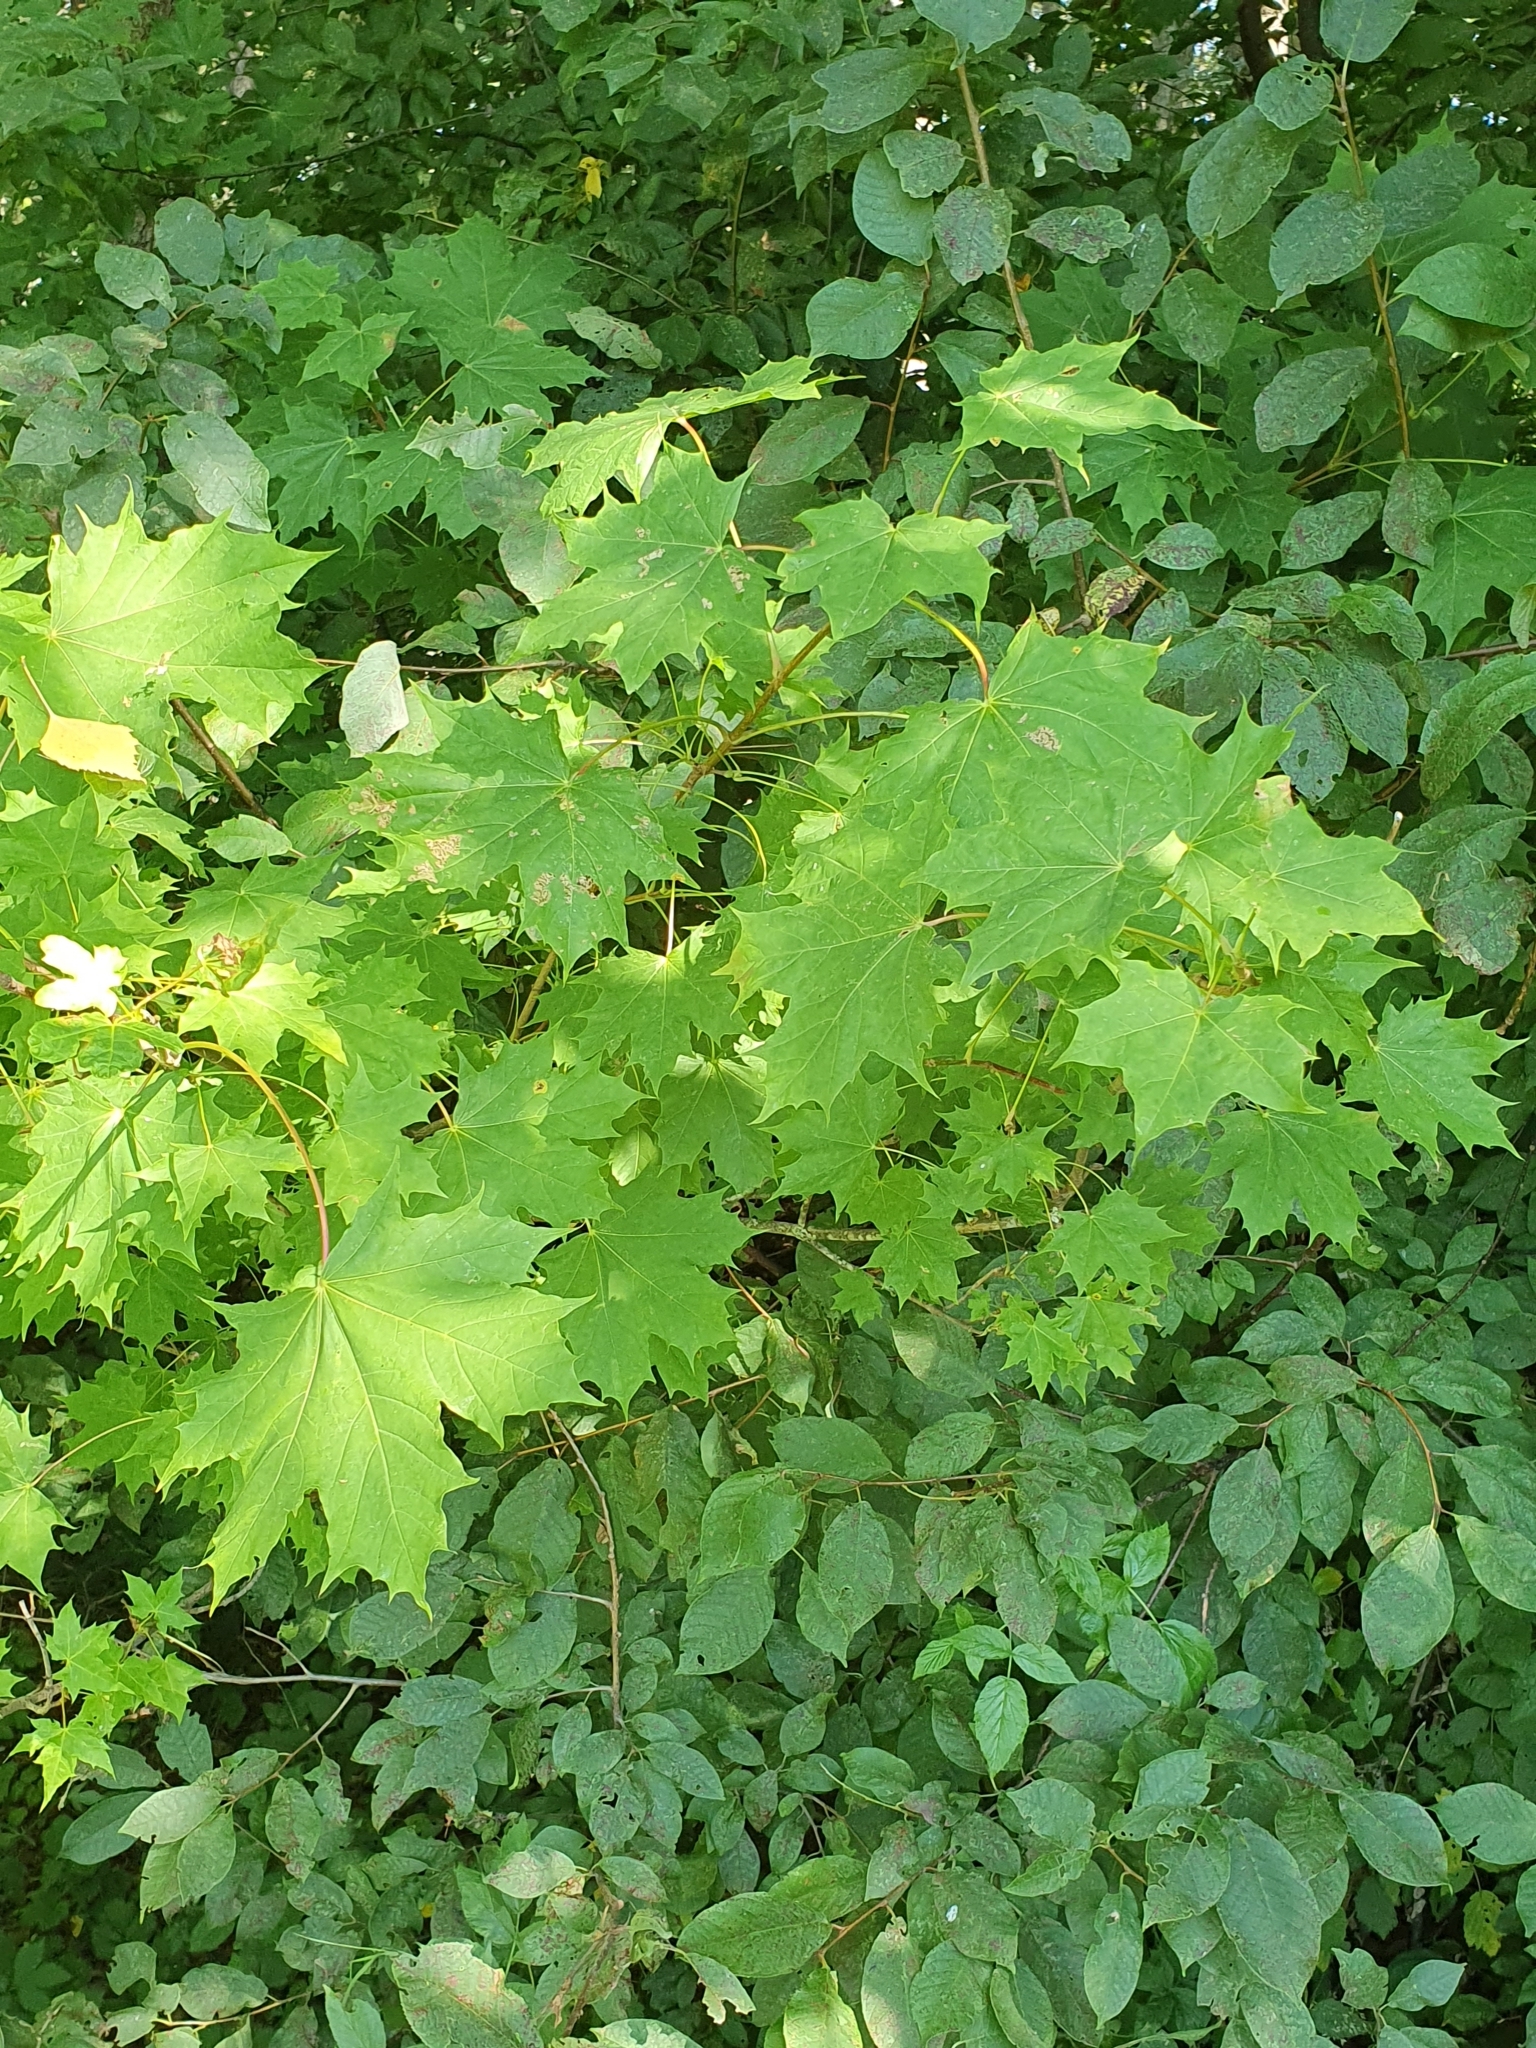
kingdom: Plantae
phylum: Tracheophyta
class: Magnoliopsida
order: Sapindales
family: Sapindaceae
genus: Acer
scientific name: Acer platanoides
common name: Norway maple
